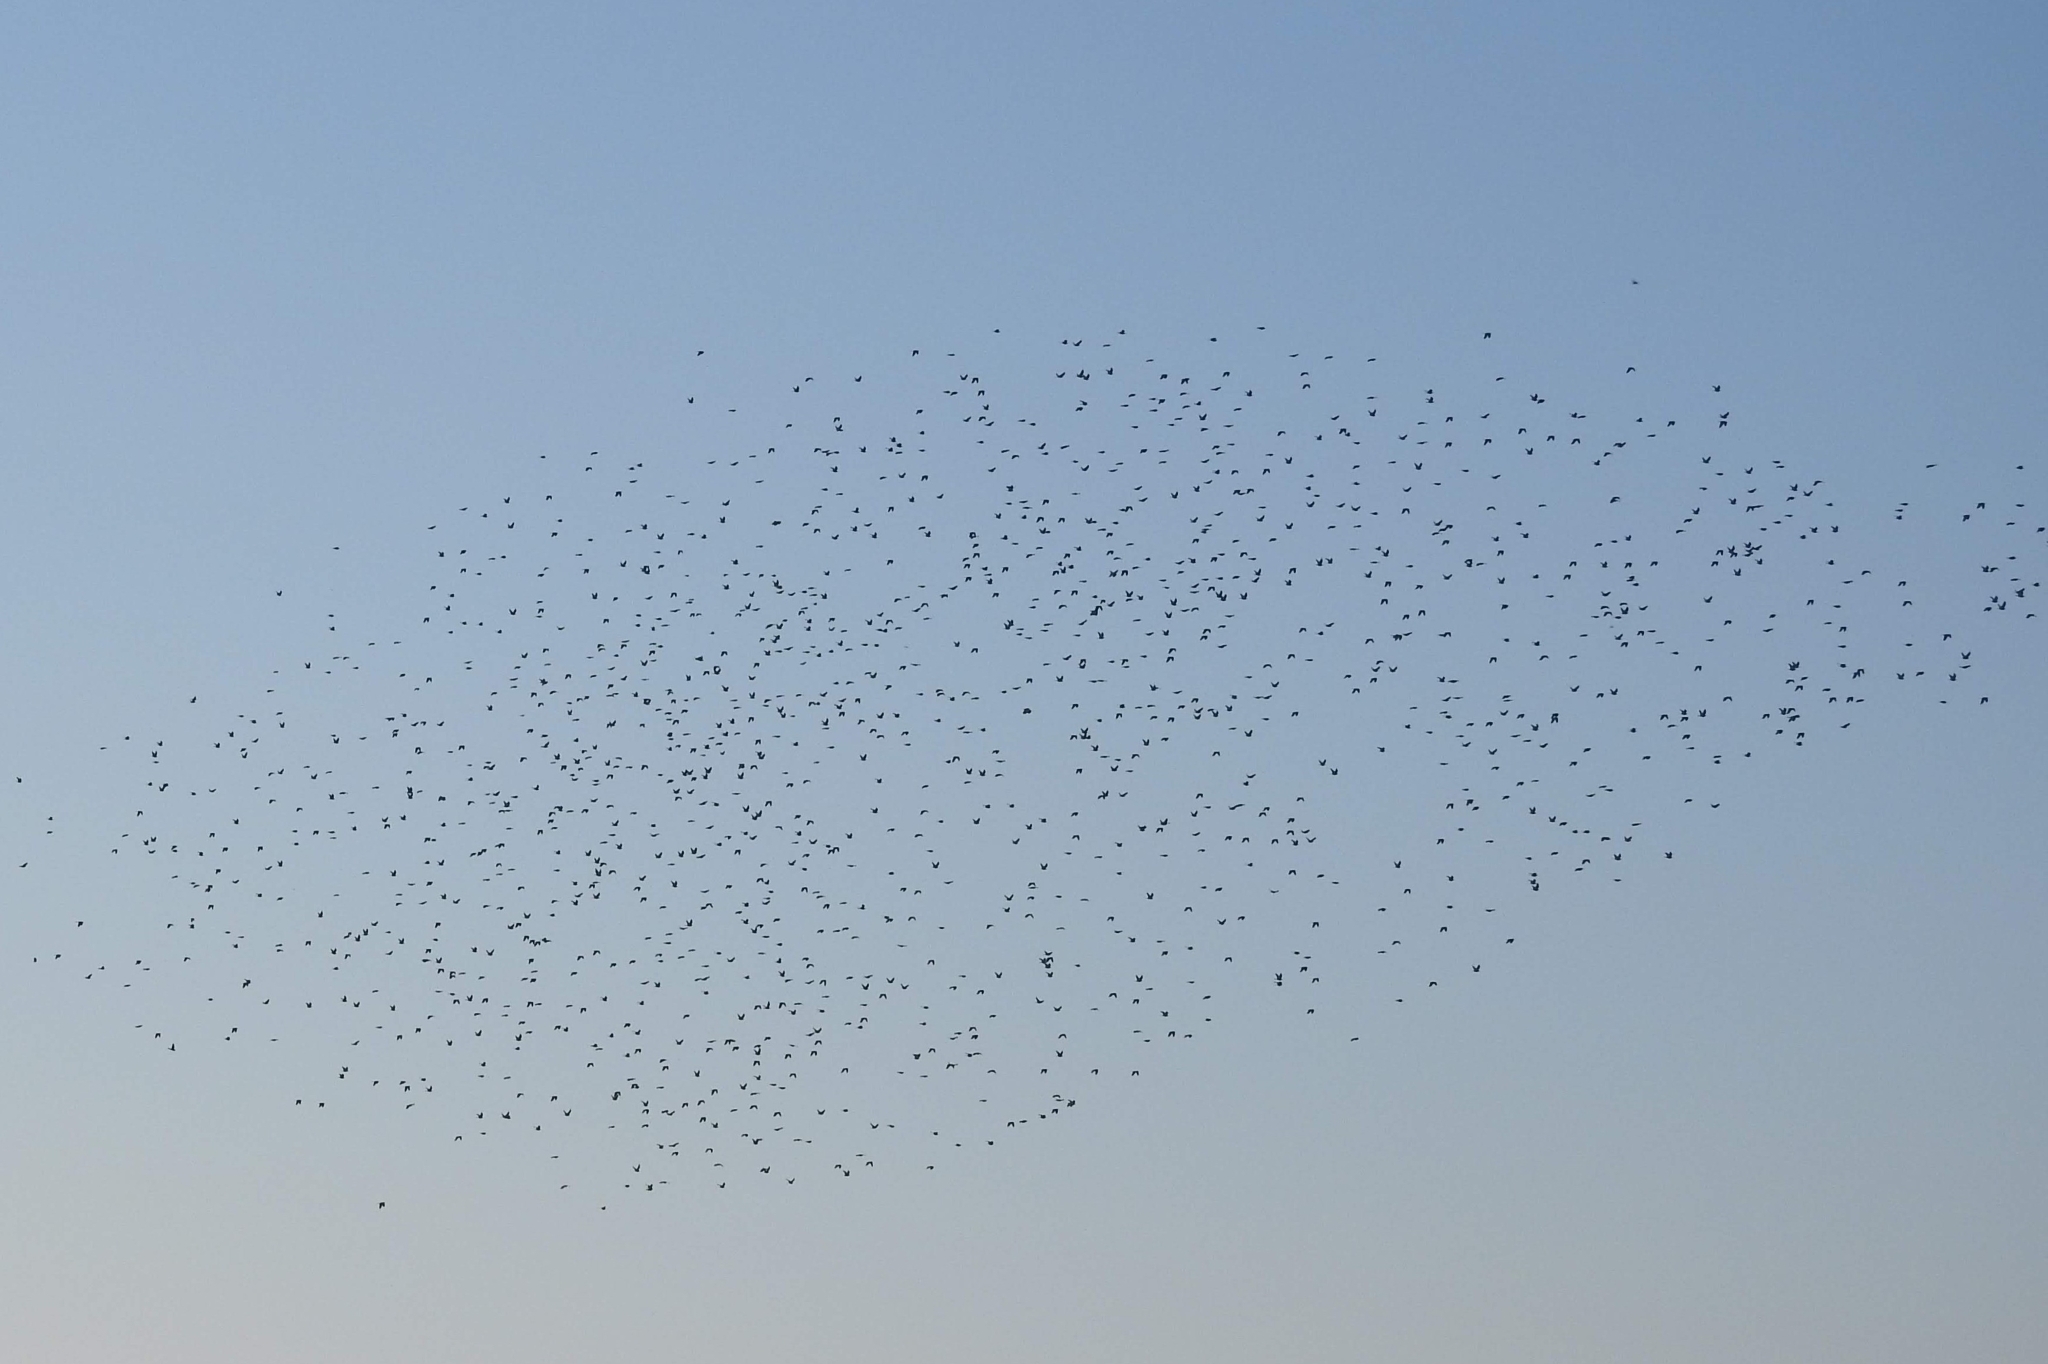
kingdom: Animalia
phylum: Chordata
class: Aves
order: Columbiformes
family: Columbidae
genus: Columba
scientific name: Columba palumbus
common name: Common wood pigeon
